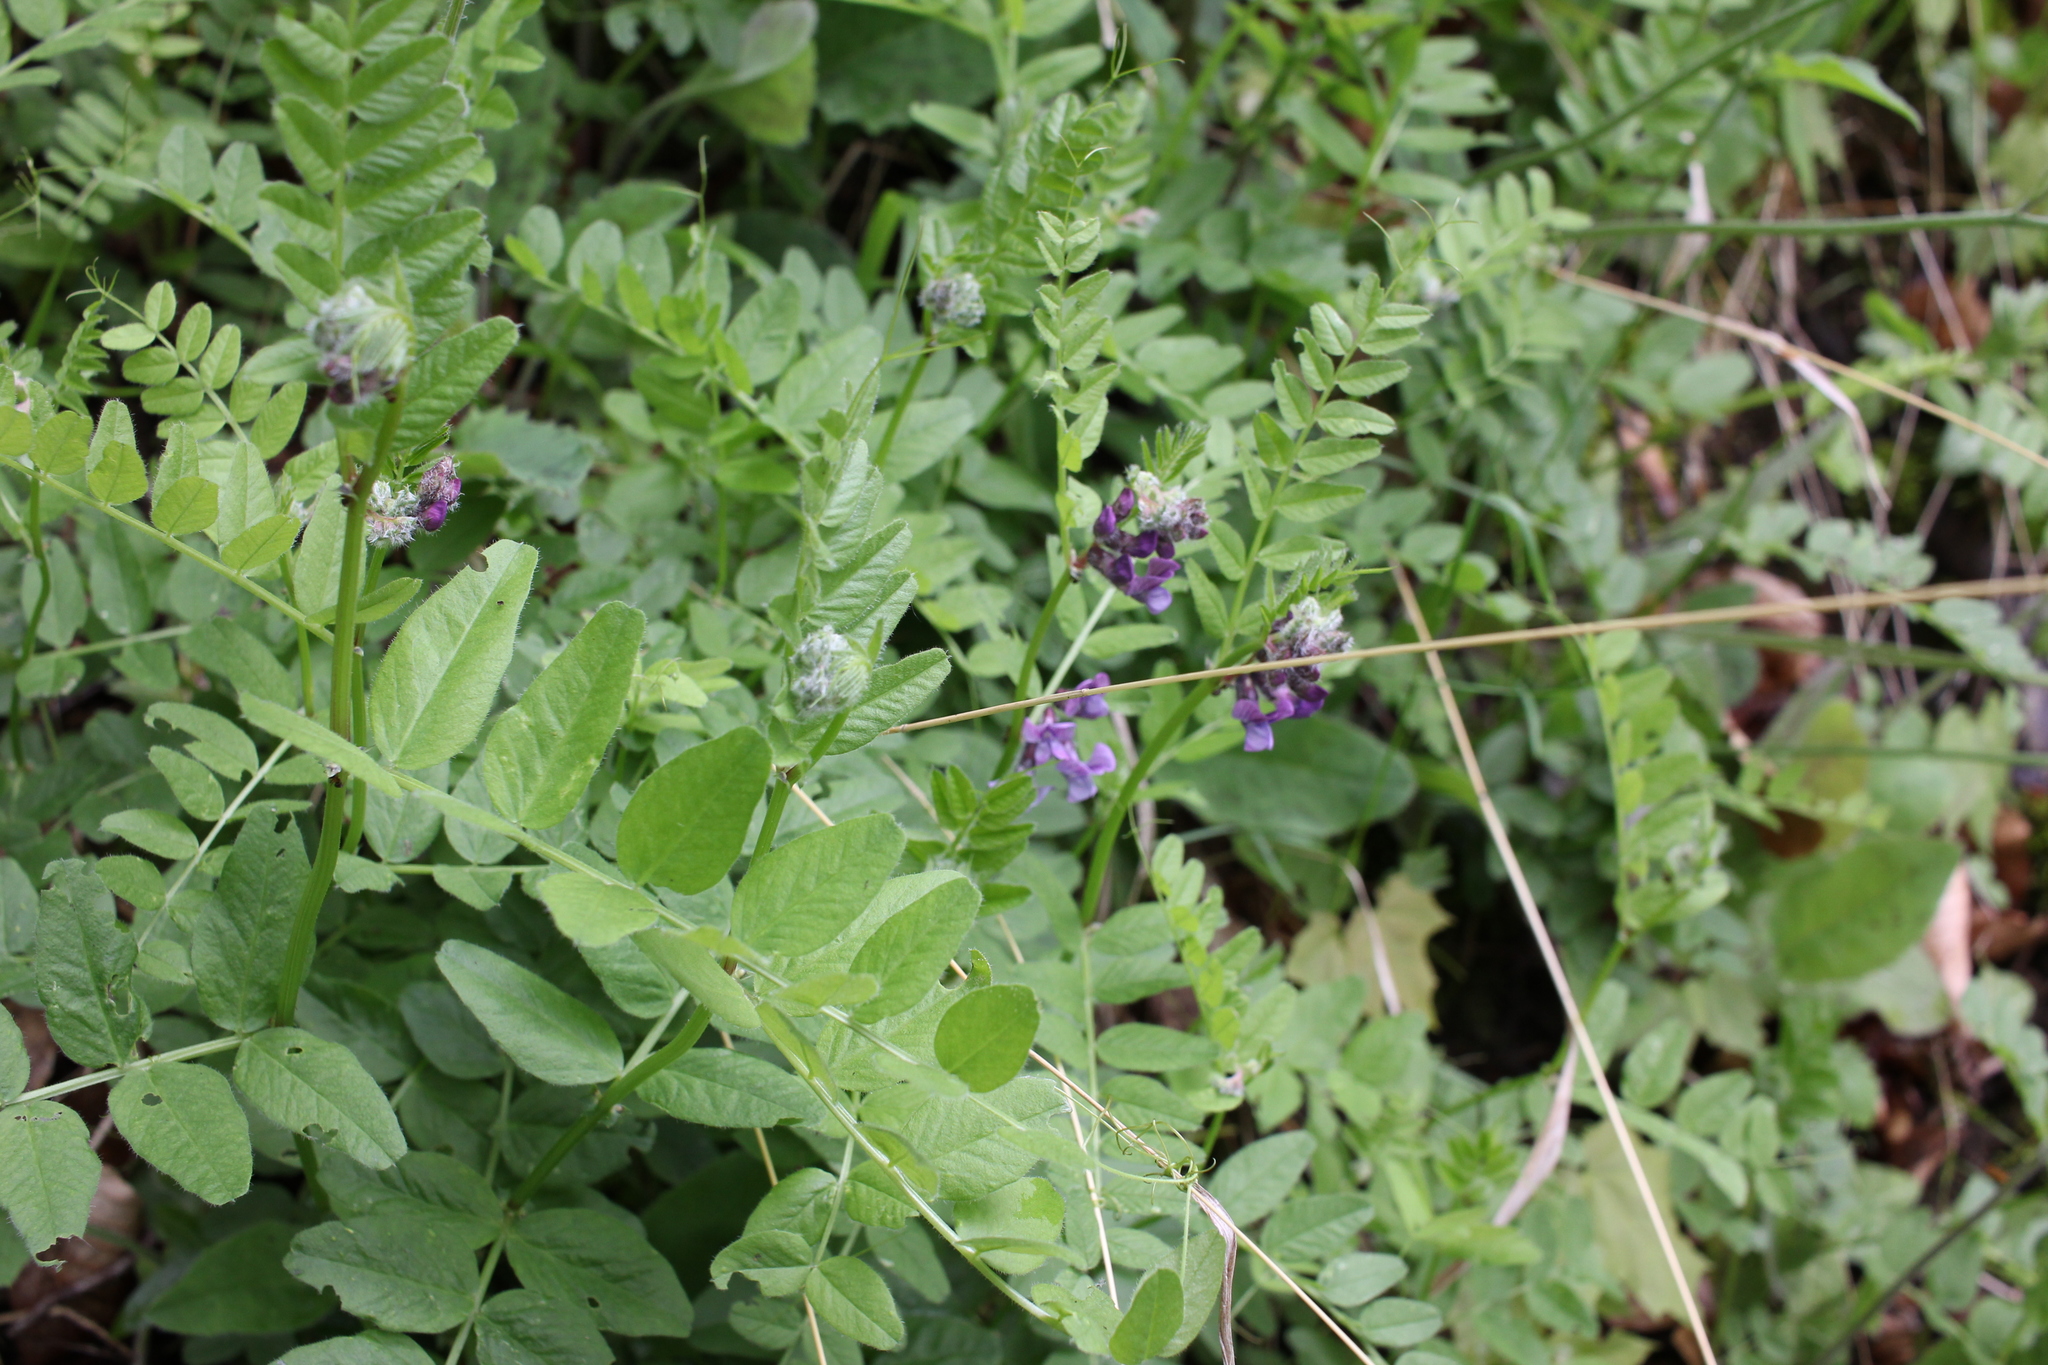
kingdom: Plantae
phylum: Tracheophyta
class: Magnoliopsida
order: Fabales
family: Fabaceae
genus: Vicia
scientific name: Vicia sepium
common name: Bush vetch
